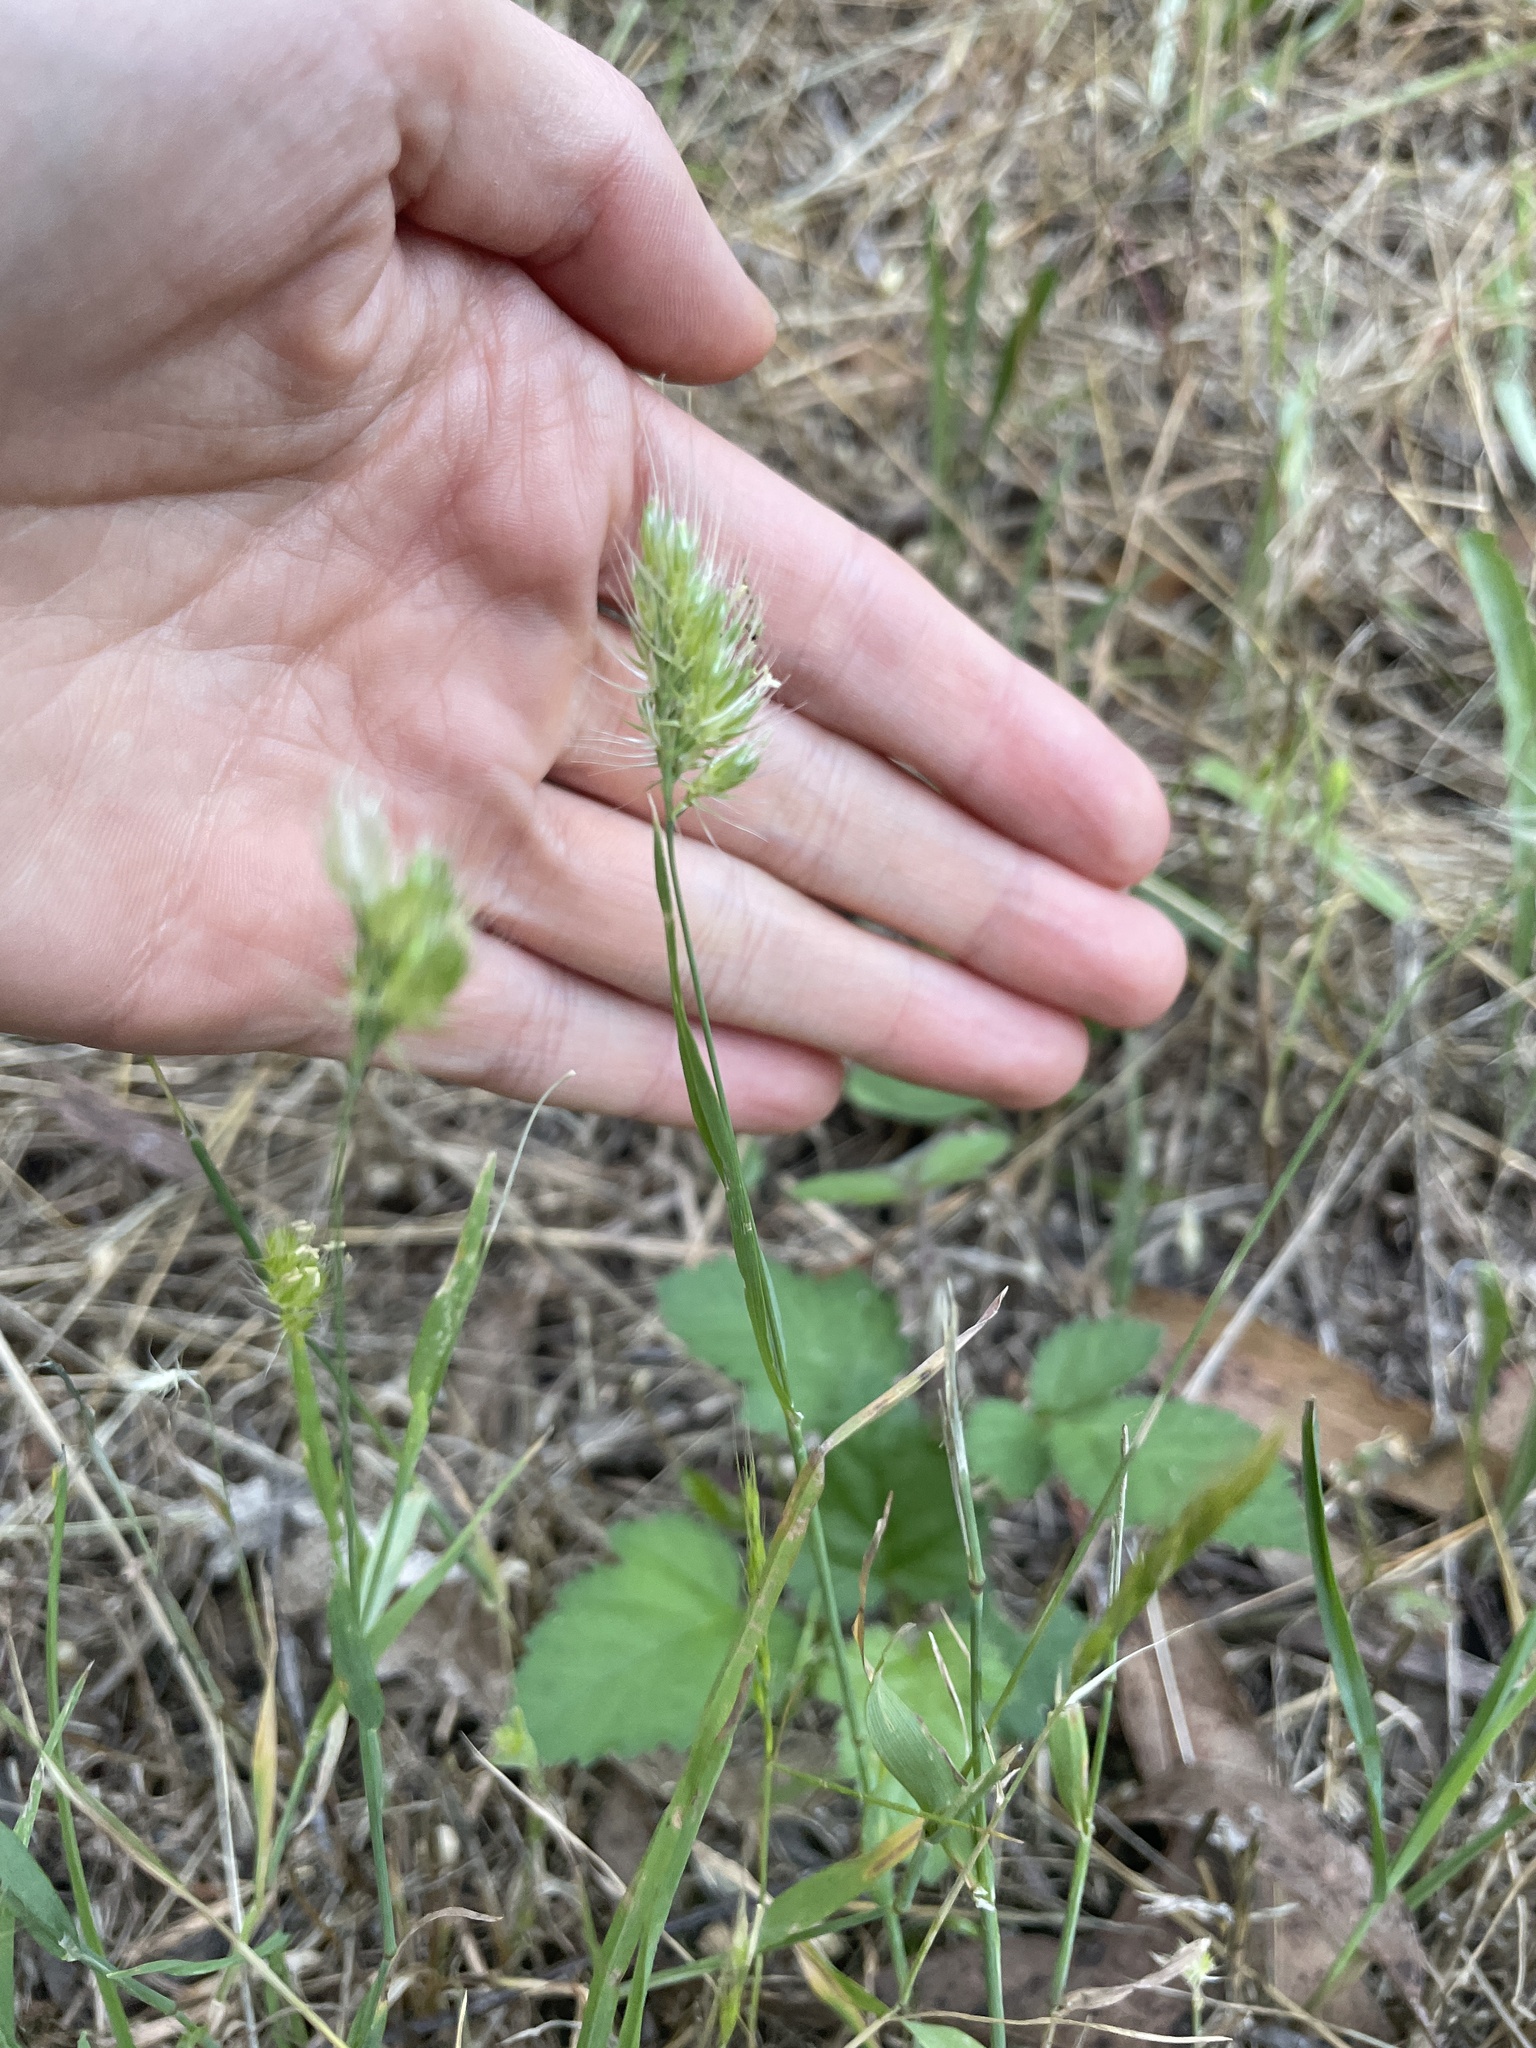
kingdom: Plantae
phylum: Tracheophyta
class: Liliopsida
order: Poales
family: Poaceae
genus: Cynosurus
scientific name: Cynosurus echinatus
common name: Rough dog's-tail
